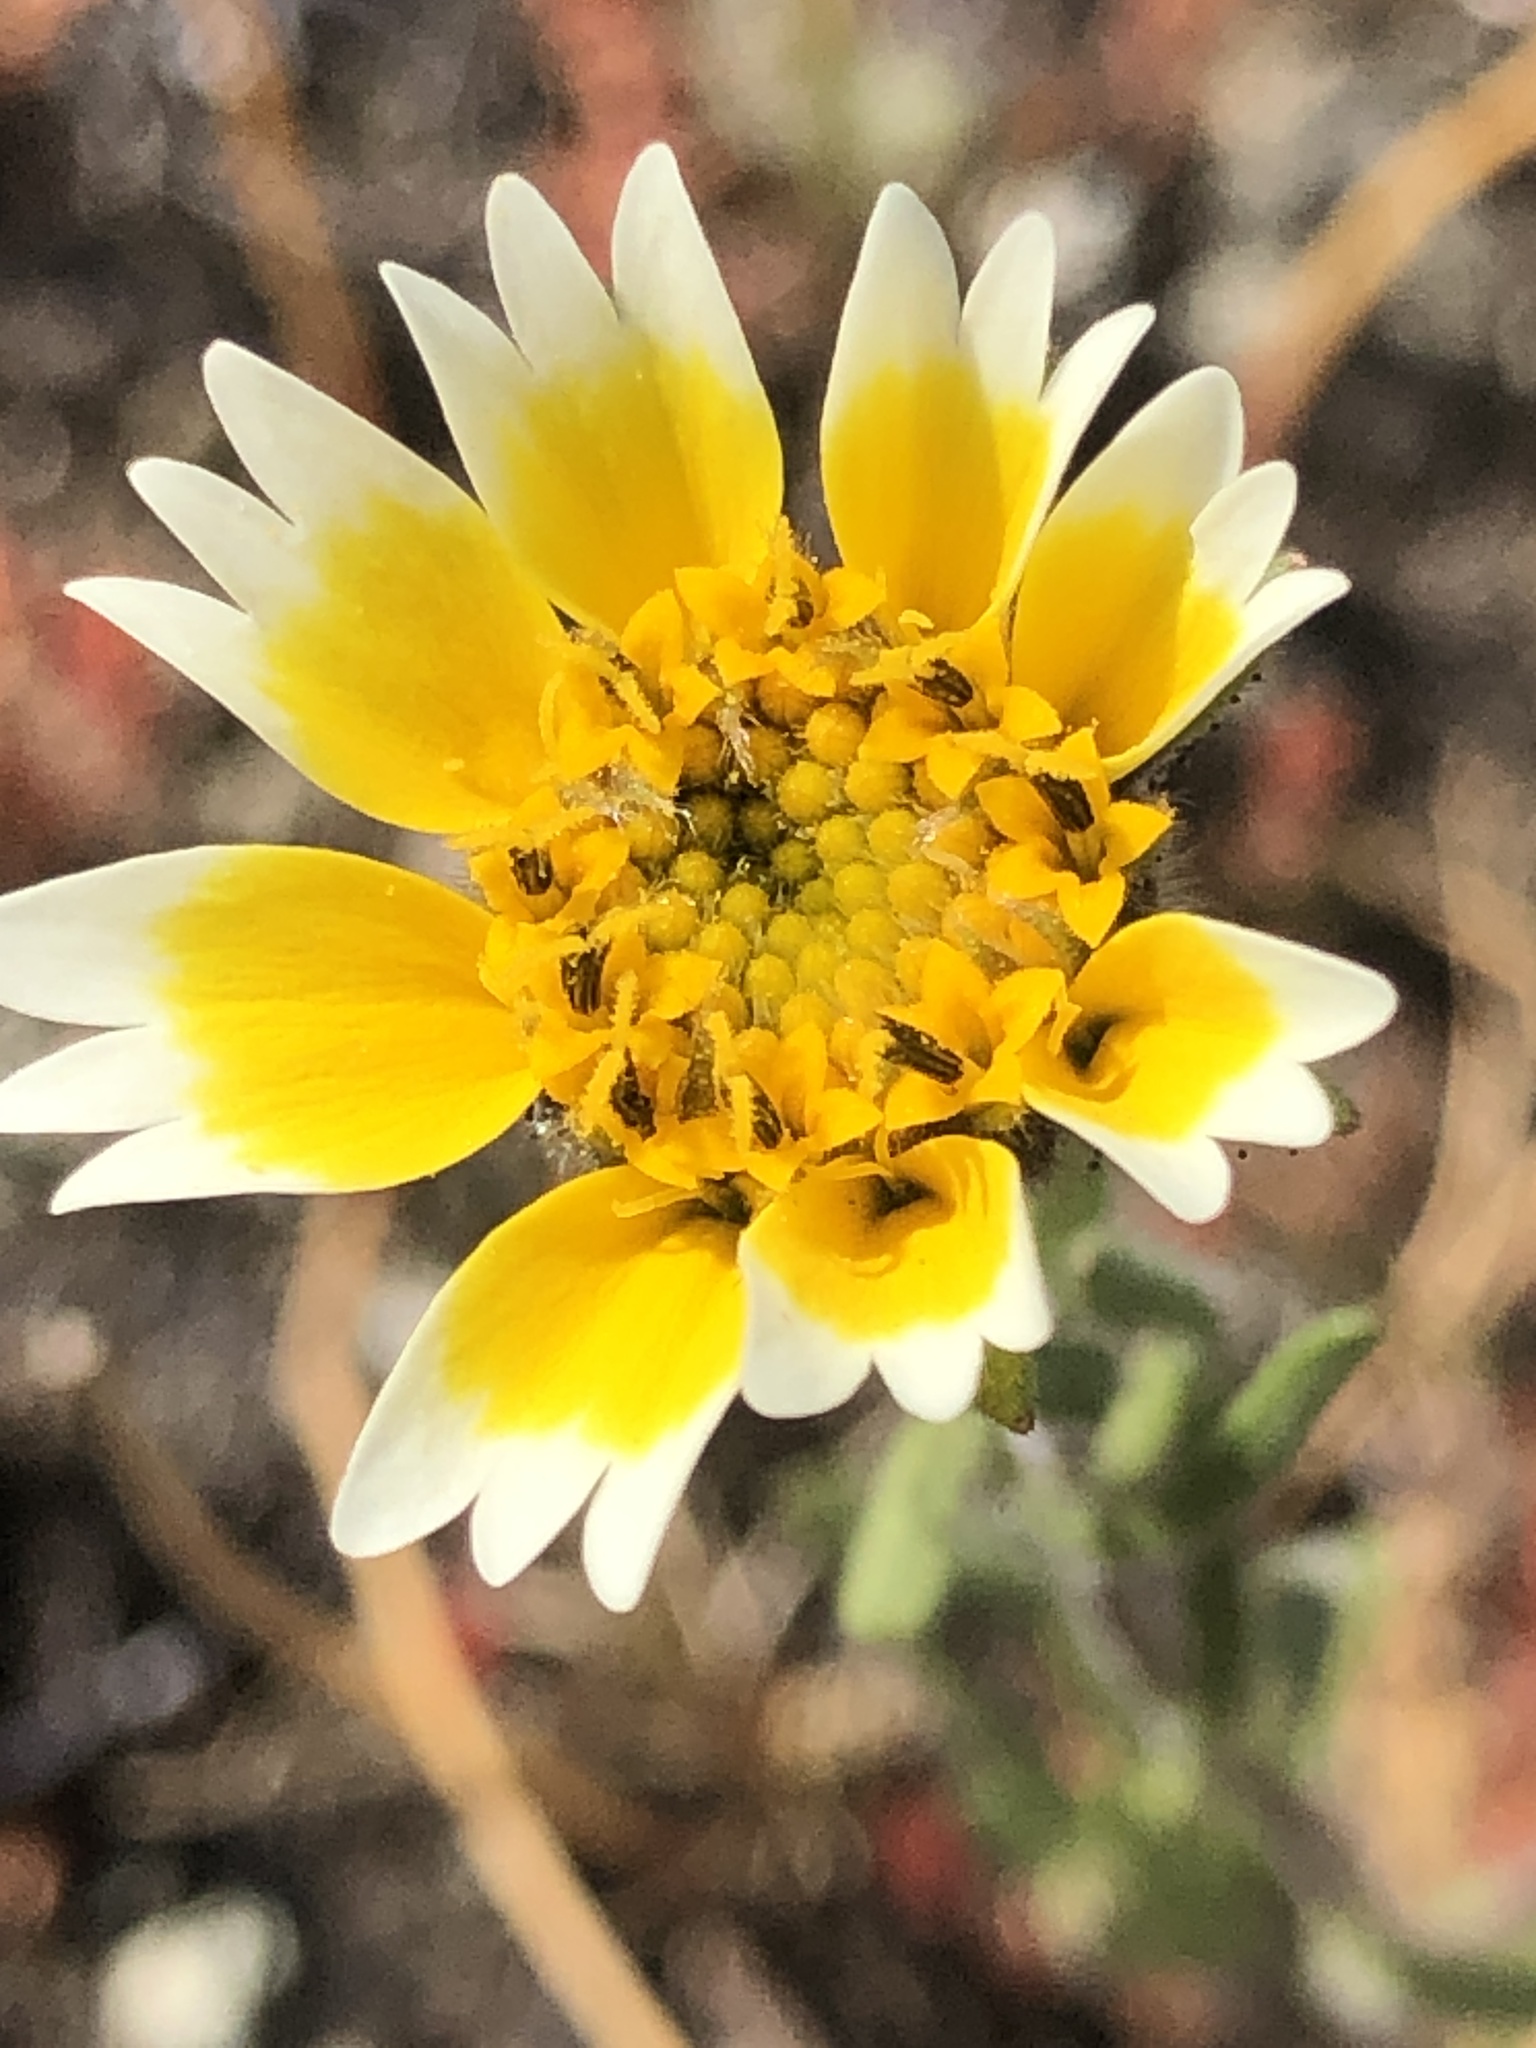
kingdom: Plantae
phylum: Tracheophyta
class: Magnoliopsida
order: Asterales
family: Asteraceae
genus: Layia
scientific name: Layia platyglossa
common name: Tidy-tips
